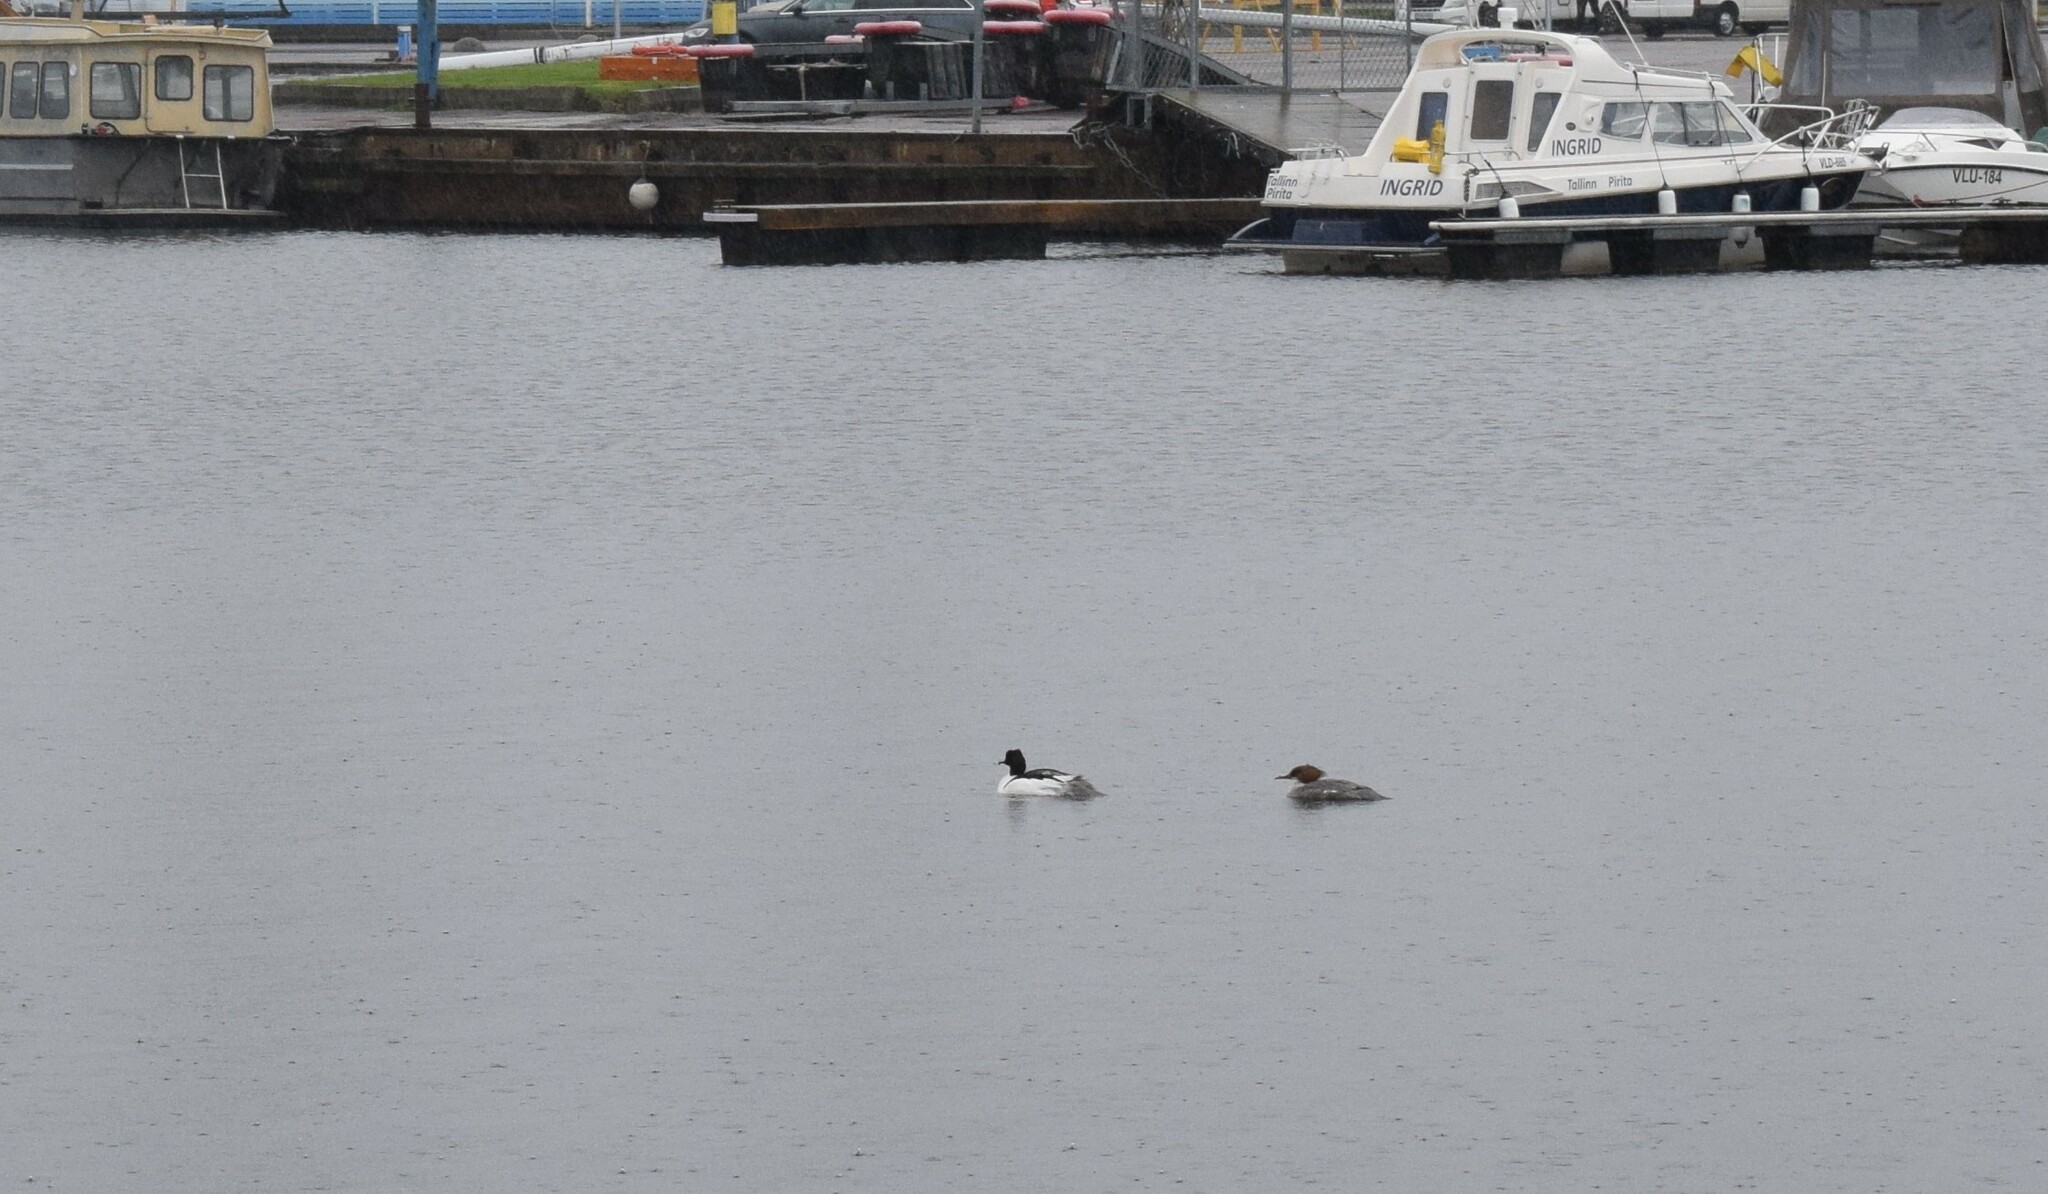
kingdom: Animalia
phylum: Chordata
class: Aves
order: Anseriformes
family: Anatidae
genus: Mergus
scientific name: Mergus merganser
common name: Common merganser
